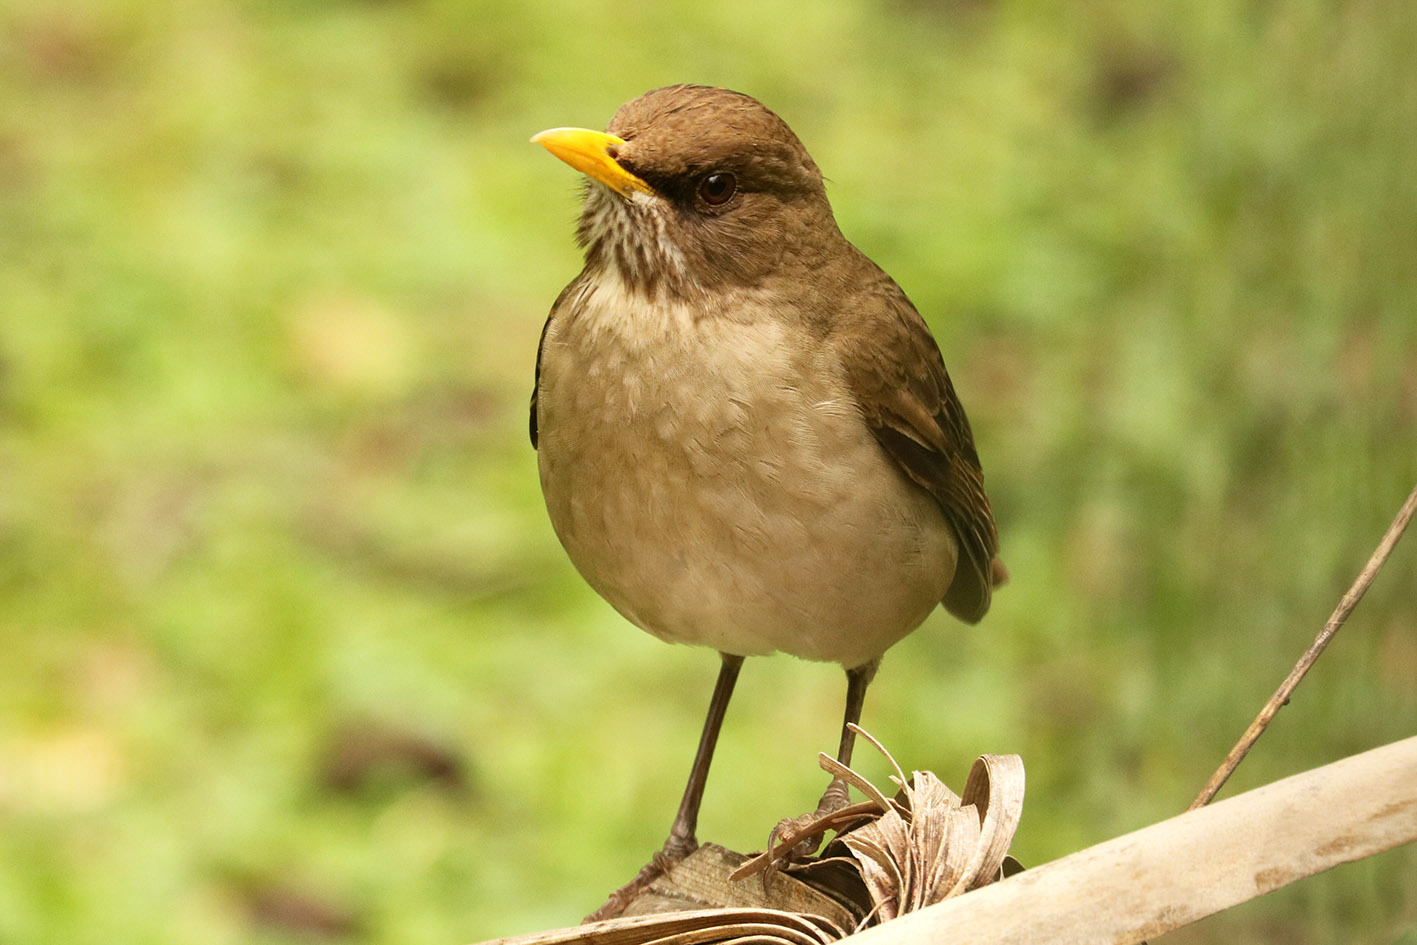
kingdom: Animalia
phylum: Chordata
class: Aves
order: Passeriformes
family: Turdidae
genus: Turdus
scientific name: Turdus amaurochalinus
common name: Creamy-bellied thrush
